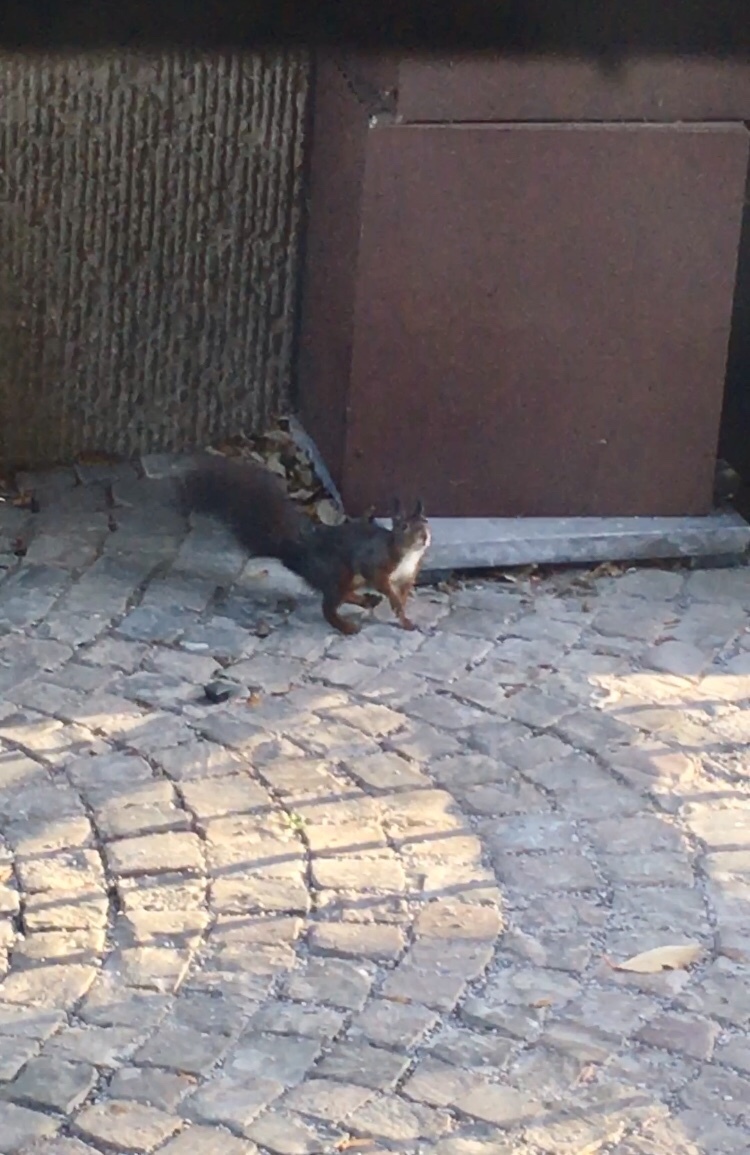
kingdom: Animalia
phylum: Chordata
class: Mammalia
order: Rodentia
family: Sciuridae
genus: Sciurus
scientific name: Sciurus vulgaris
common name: Eurasian red squirrel
